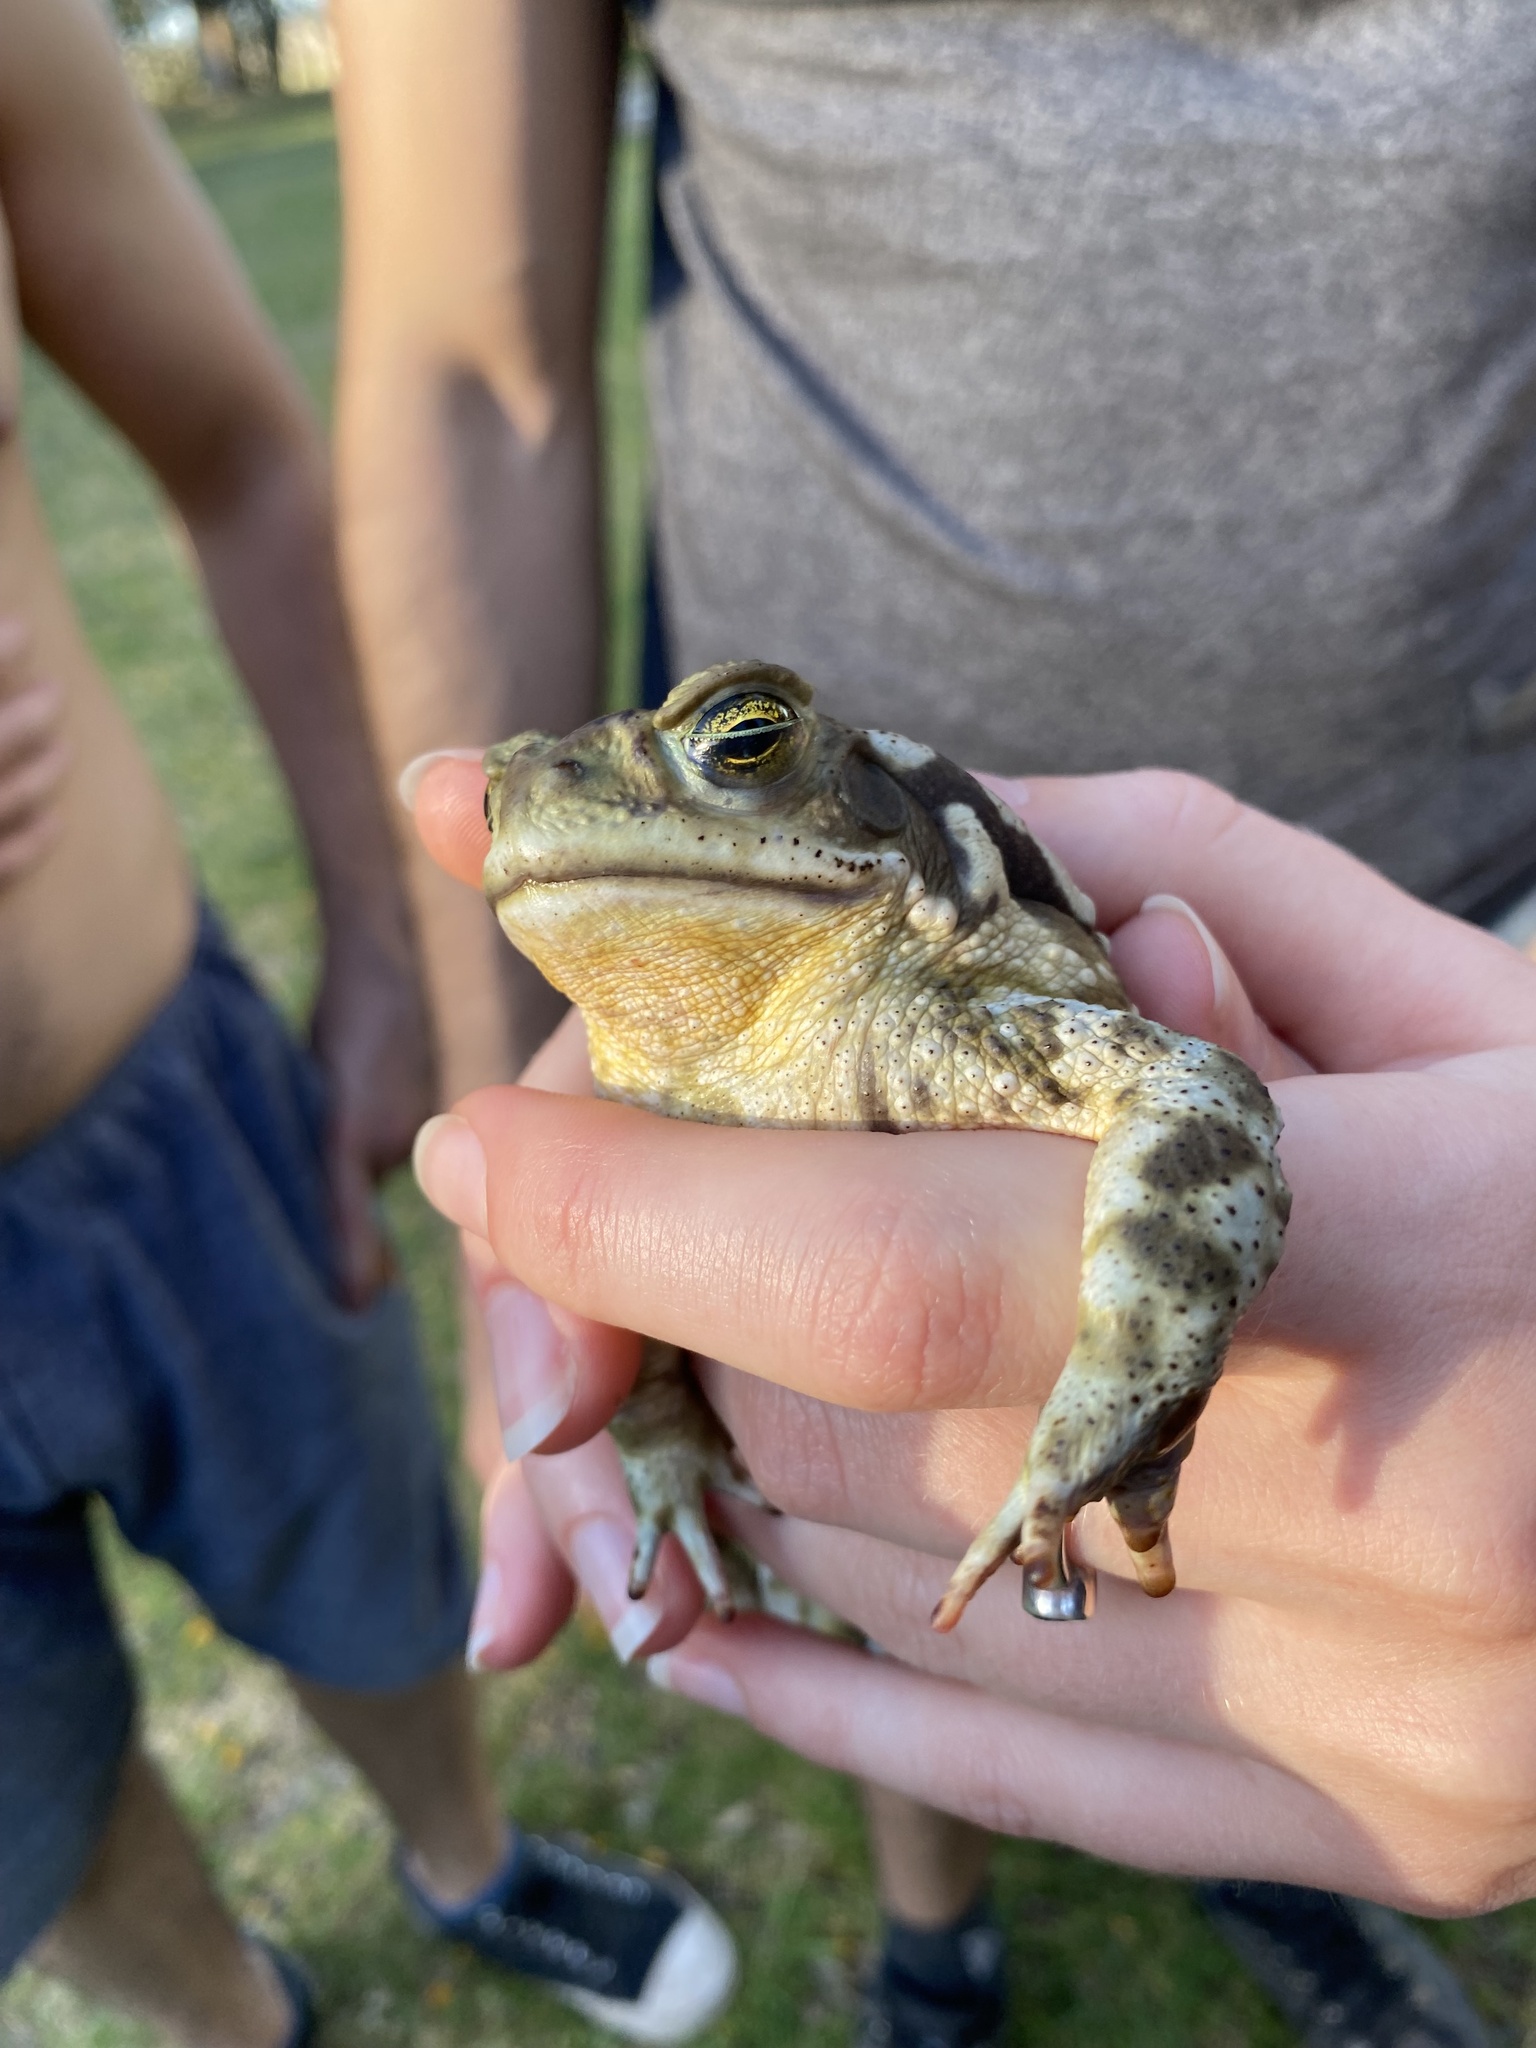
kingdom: Animalia
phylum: Chordata
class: Amphibia
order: Anura
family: Bufonidae
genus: Rhinella
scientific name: Rhinella arenarum
